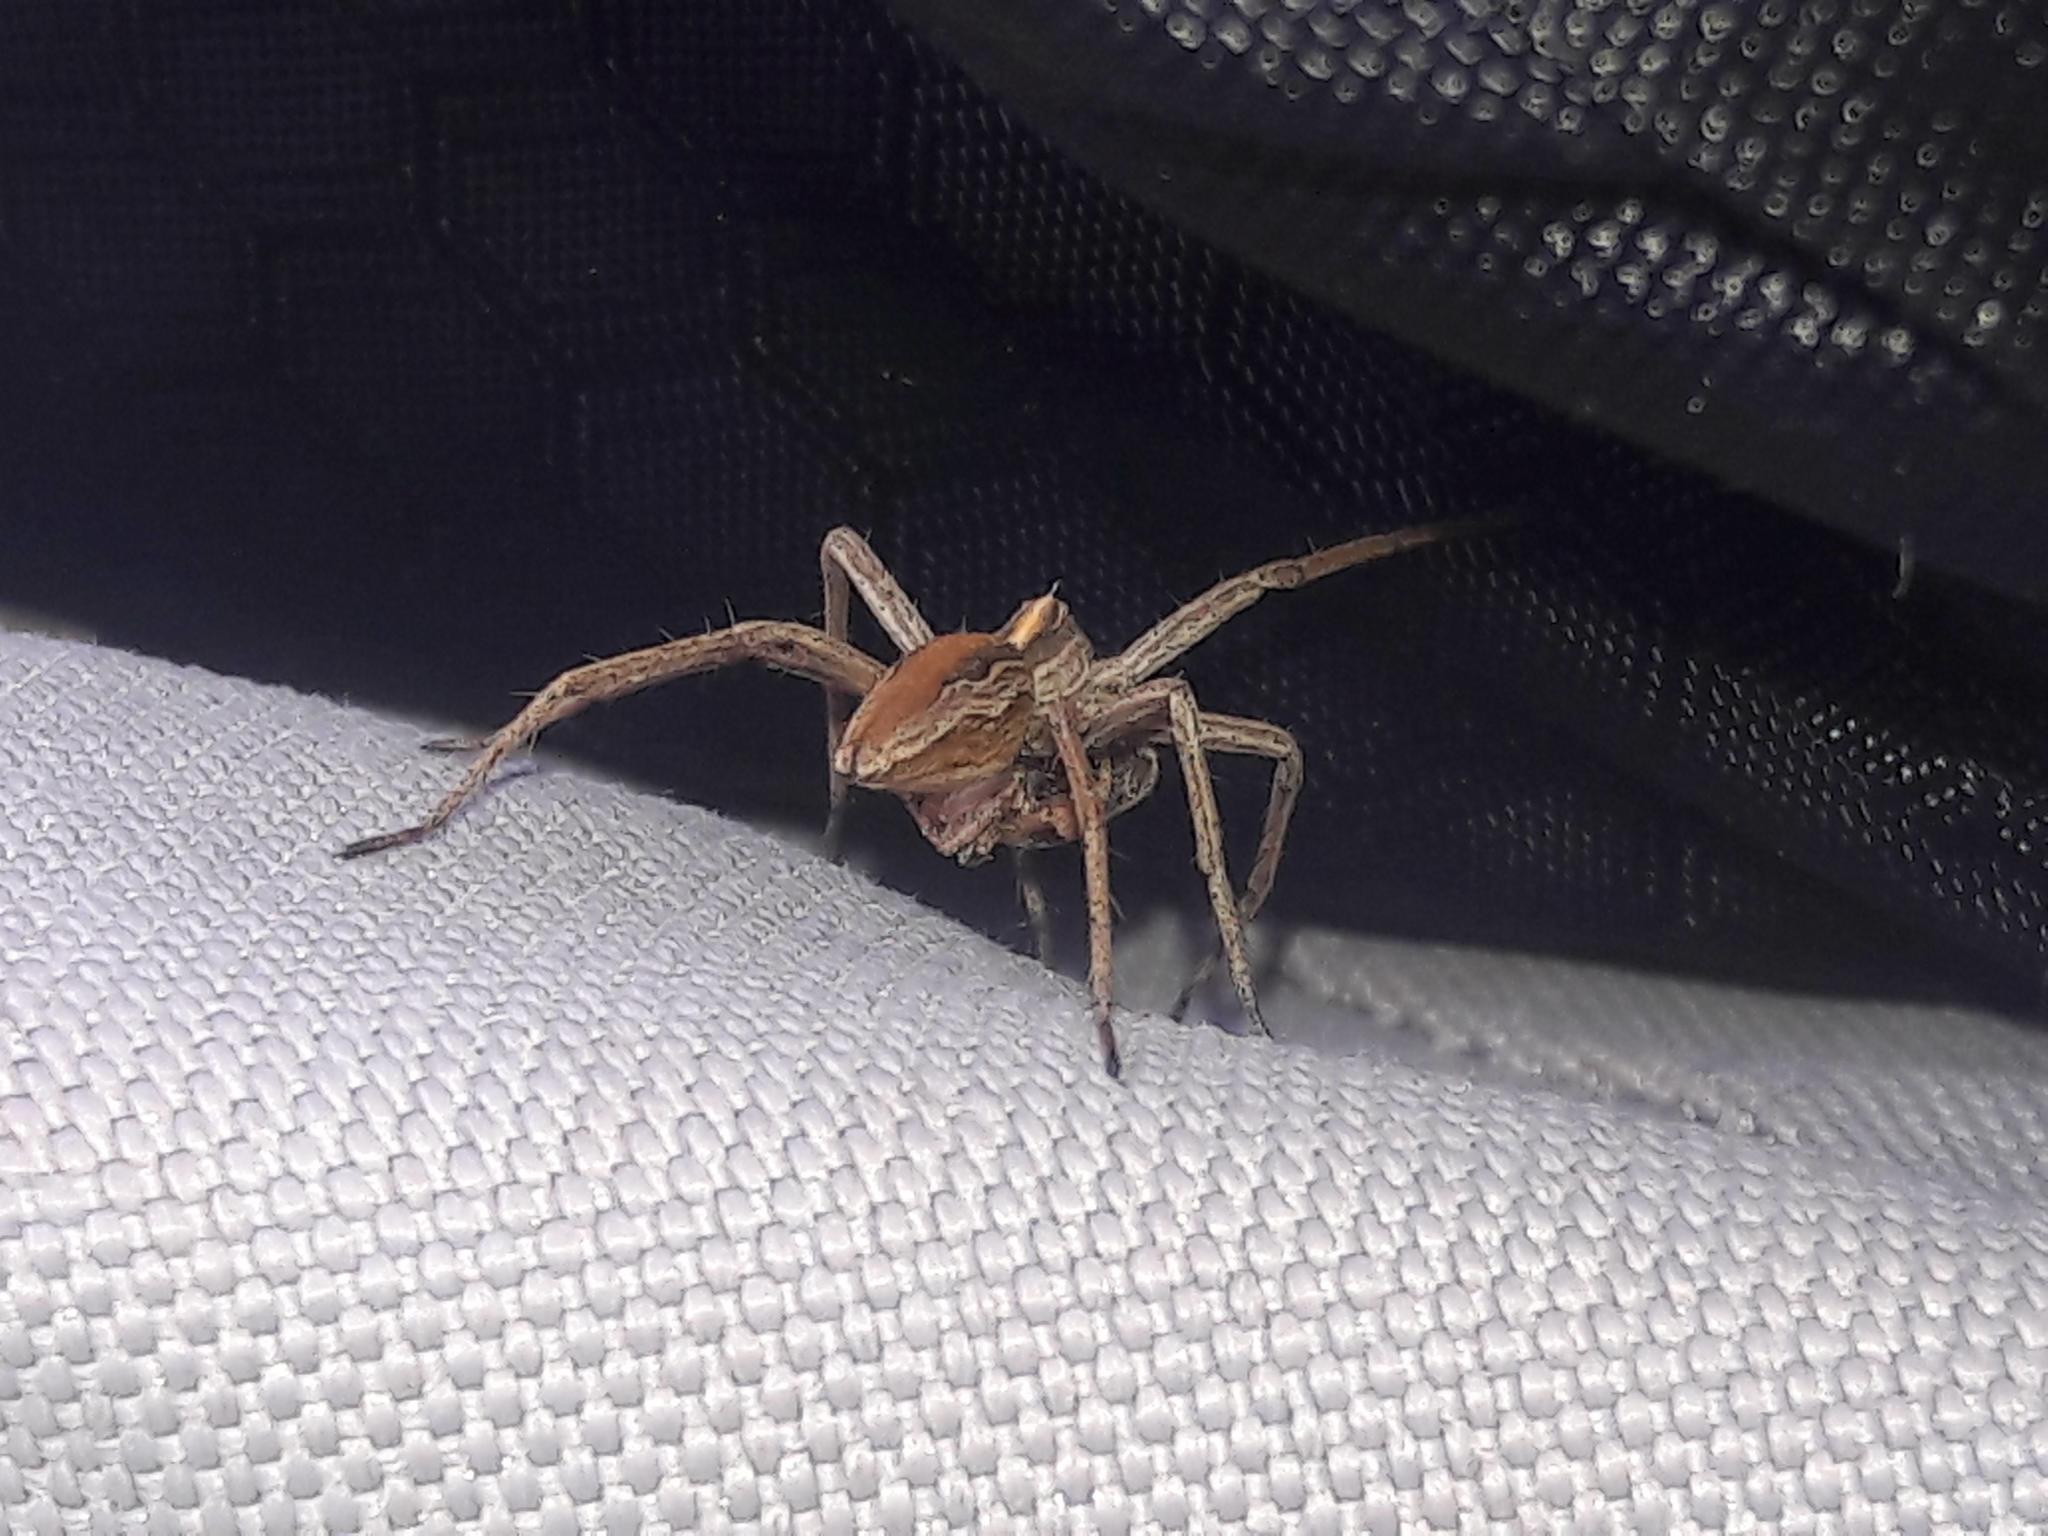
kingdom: Animalia
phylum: Arthropoda
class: Arachnida
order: Araneae
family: Pisauridae
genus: Pisaura
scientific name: Pisaura
